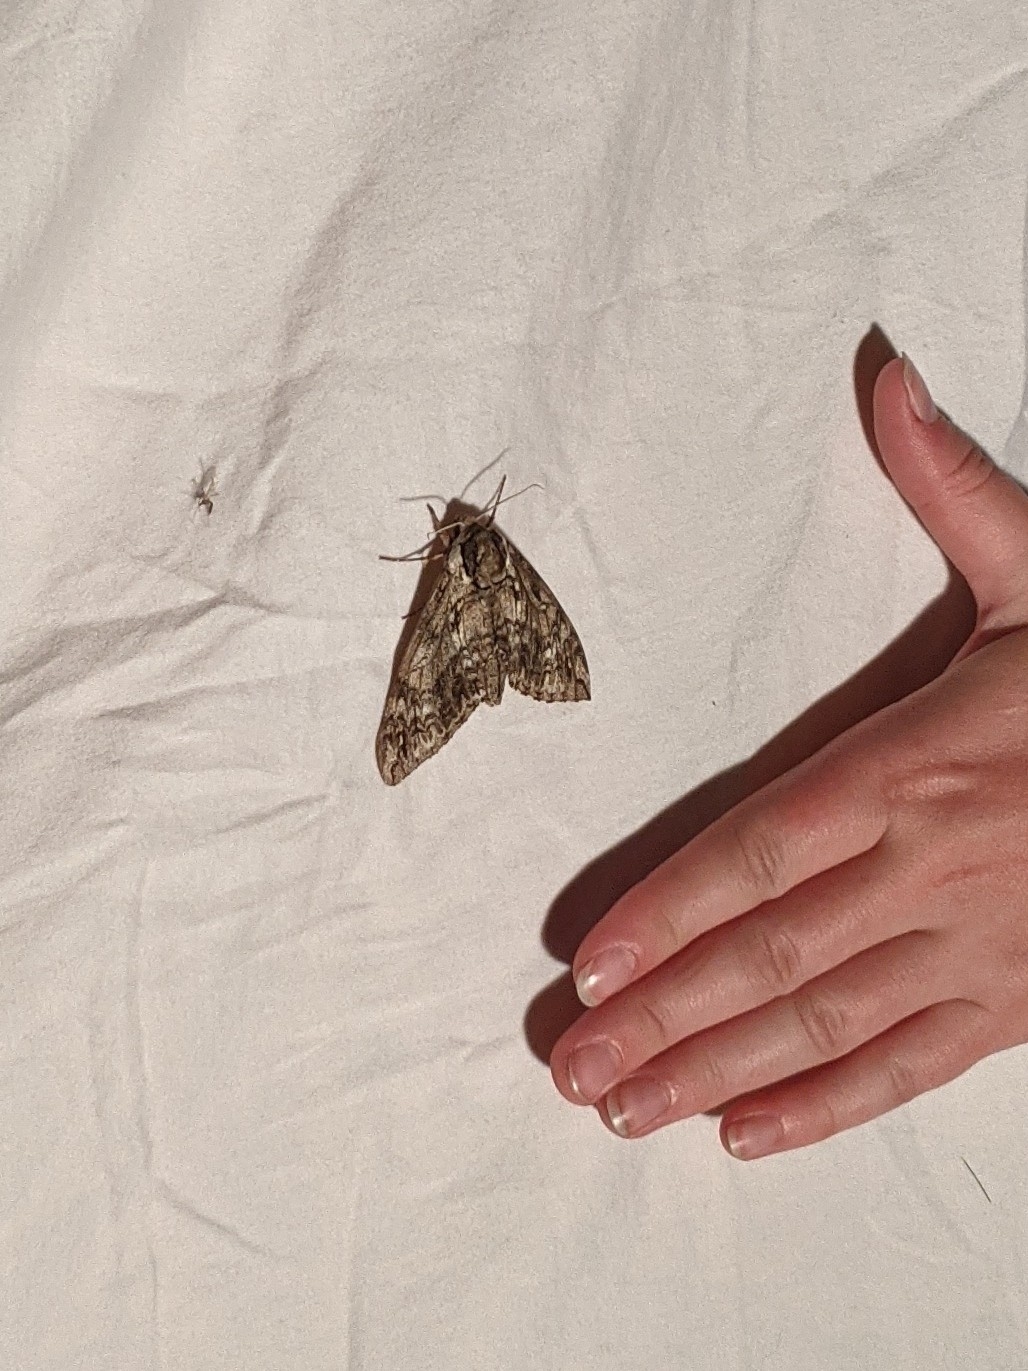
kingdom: Animalia
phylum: Arthropoda
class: Insecta
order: Lepidoptera
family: Sphingidae
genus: Ceratomia
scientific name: Ceratomia undulosa
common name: Waved sphinx
